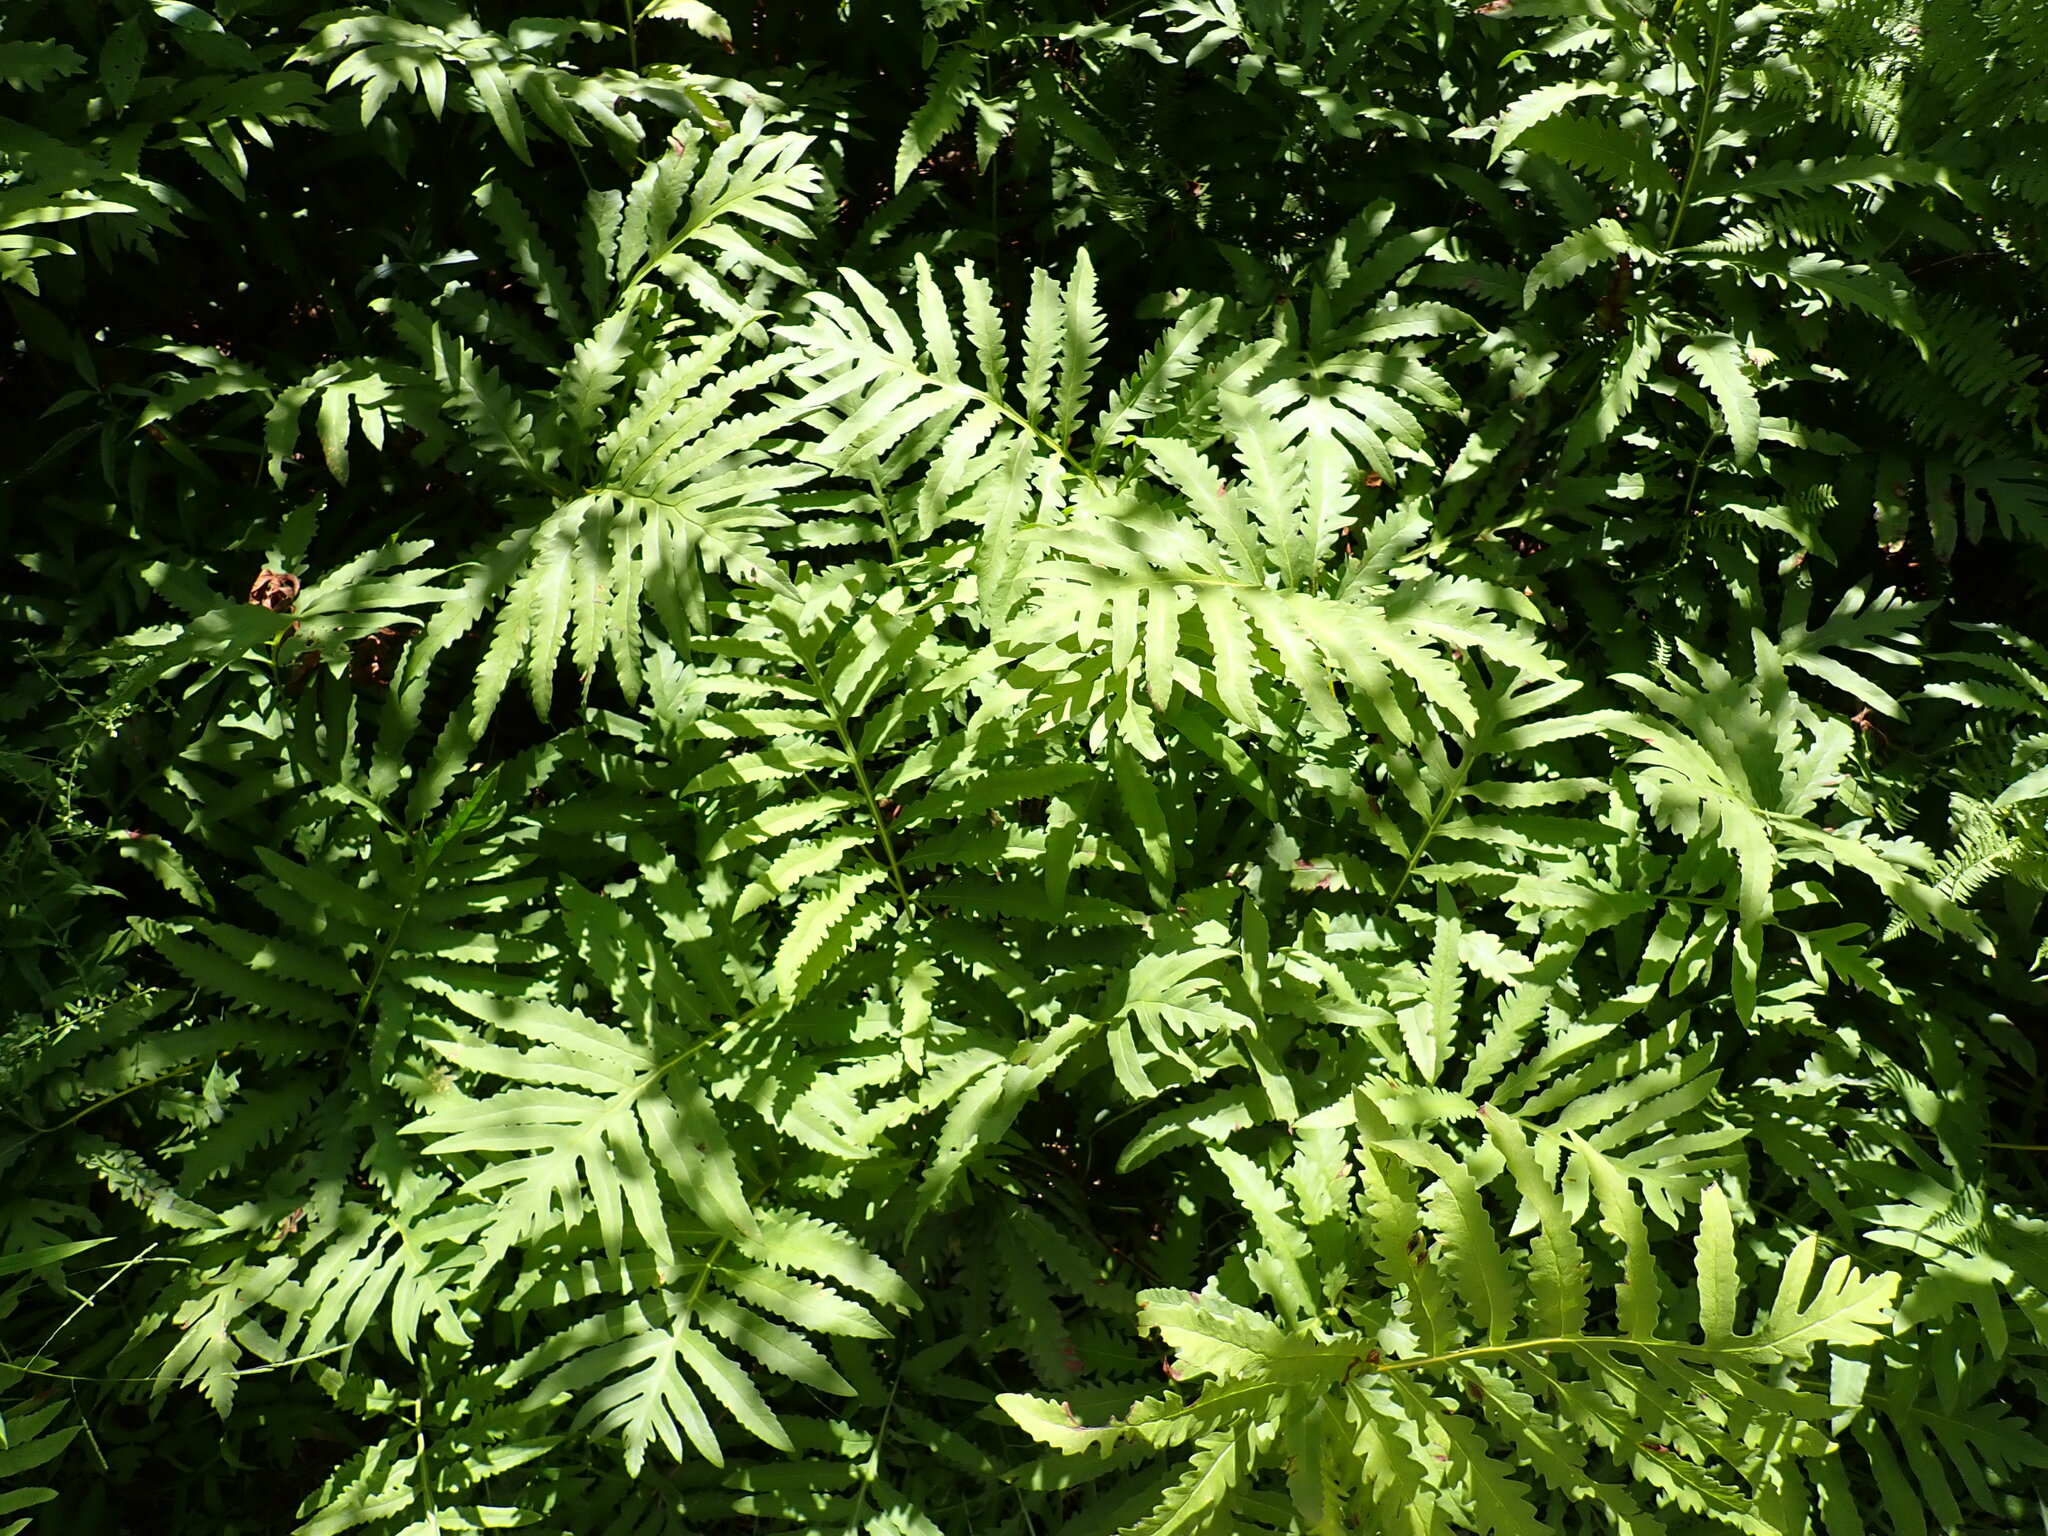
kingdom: Plantae
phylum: Tracheophyta
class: Polypodiopsida
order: Polypodiales
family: Onocleaceae
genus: Onoclea
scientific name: Onoclea sensibilis
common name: Sensitive fern
